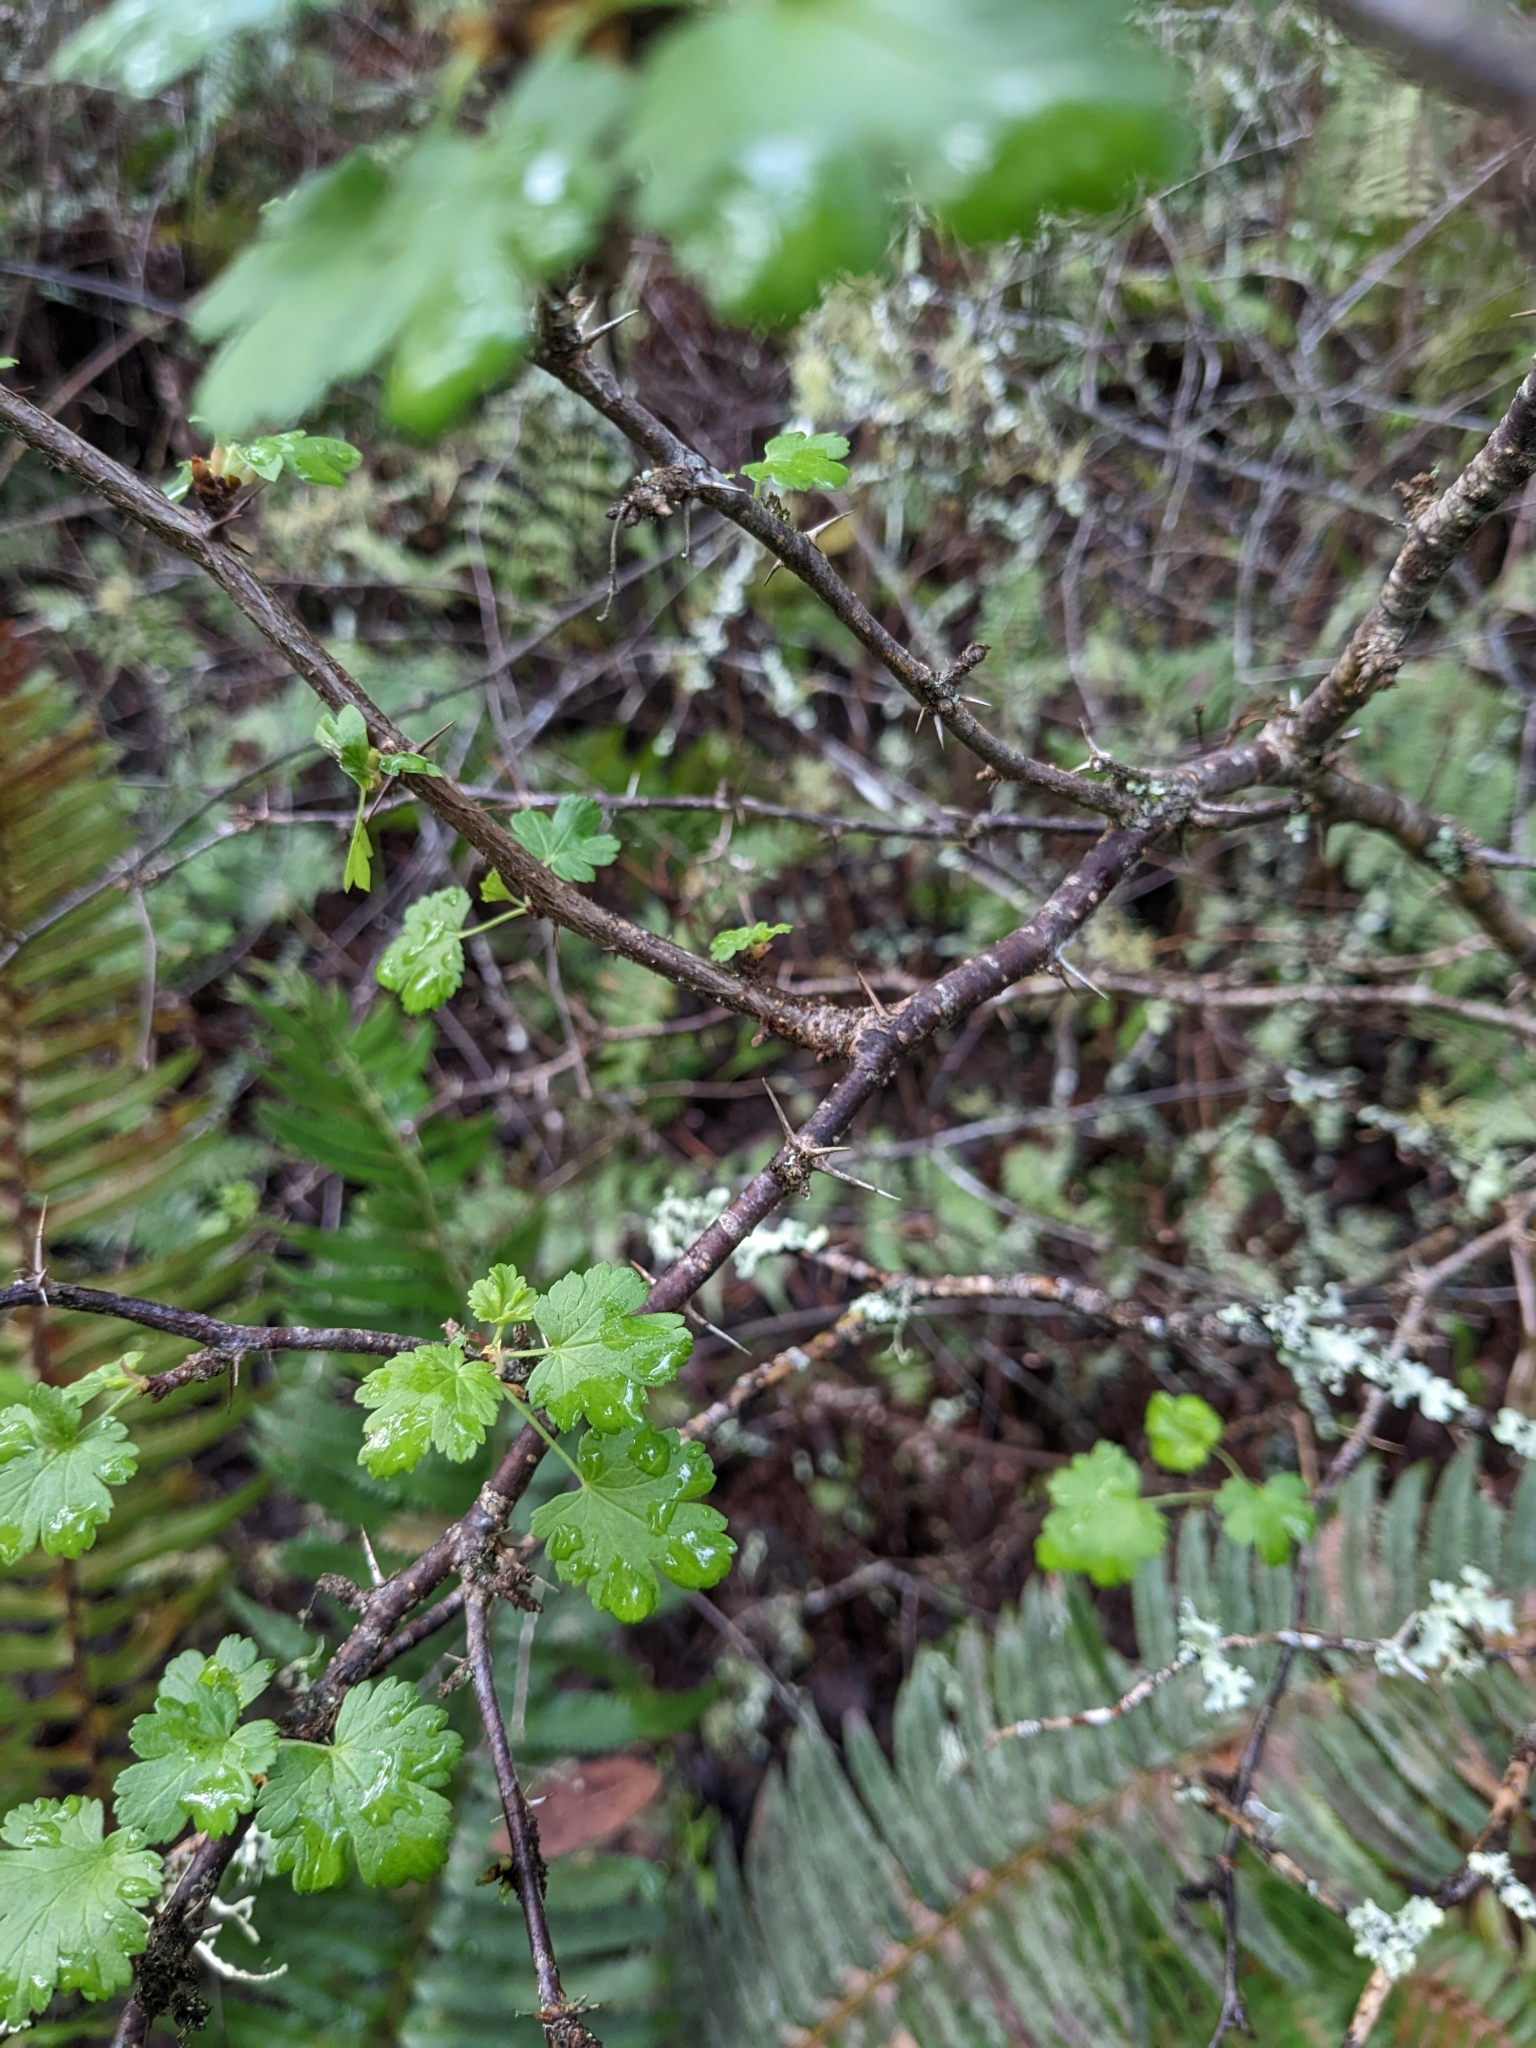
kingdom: Plantae
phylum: Tracheophyta
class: Magnoliopsida
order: Saxifragales
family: Grossulariaceae
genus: Ribes
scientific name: Ribes californicum
